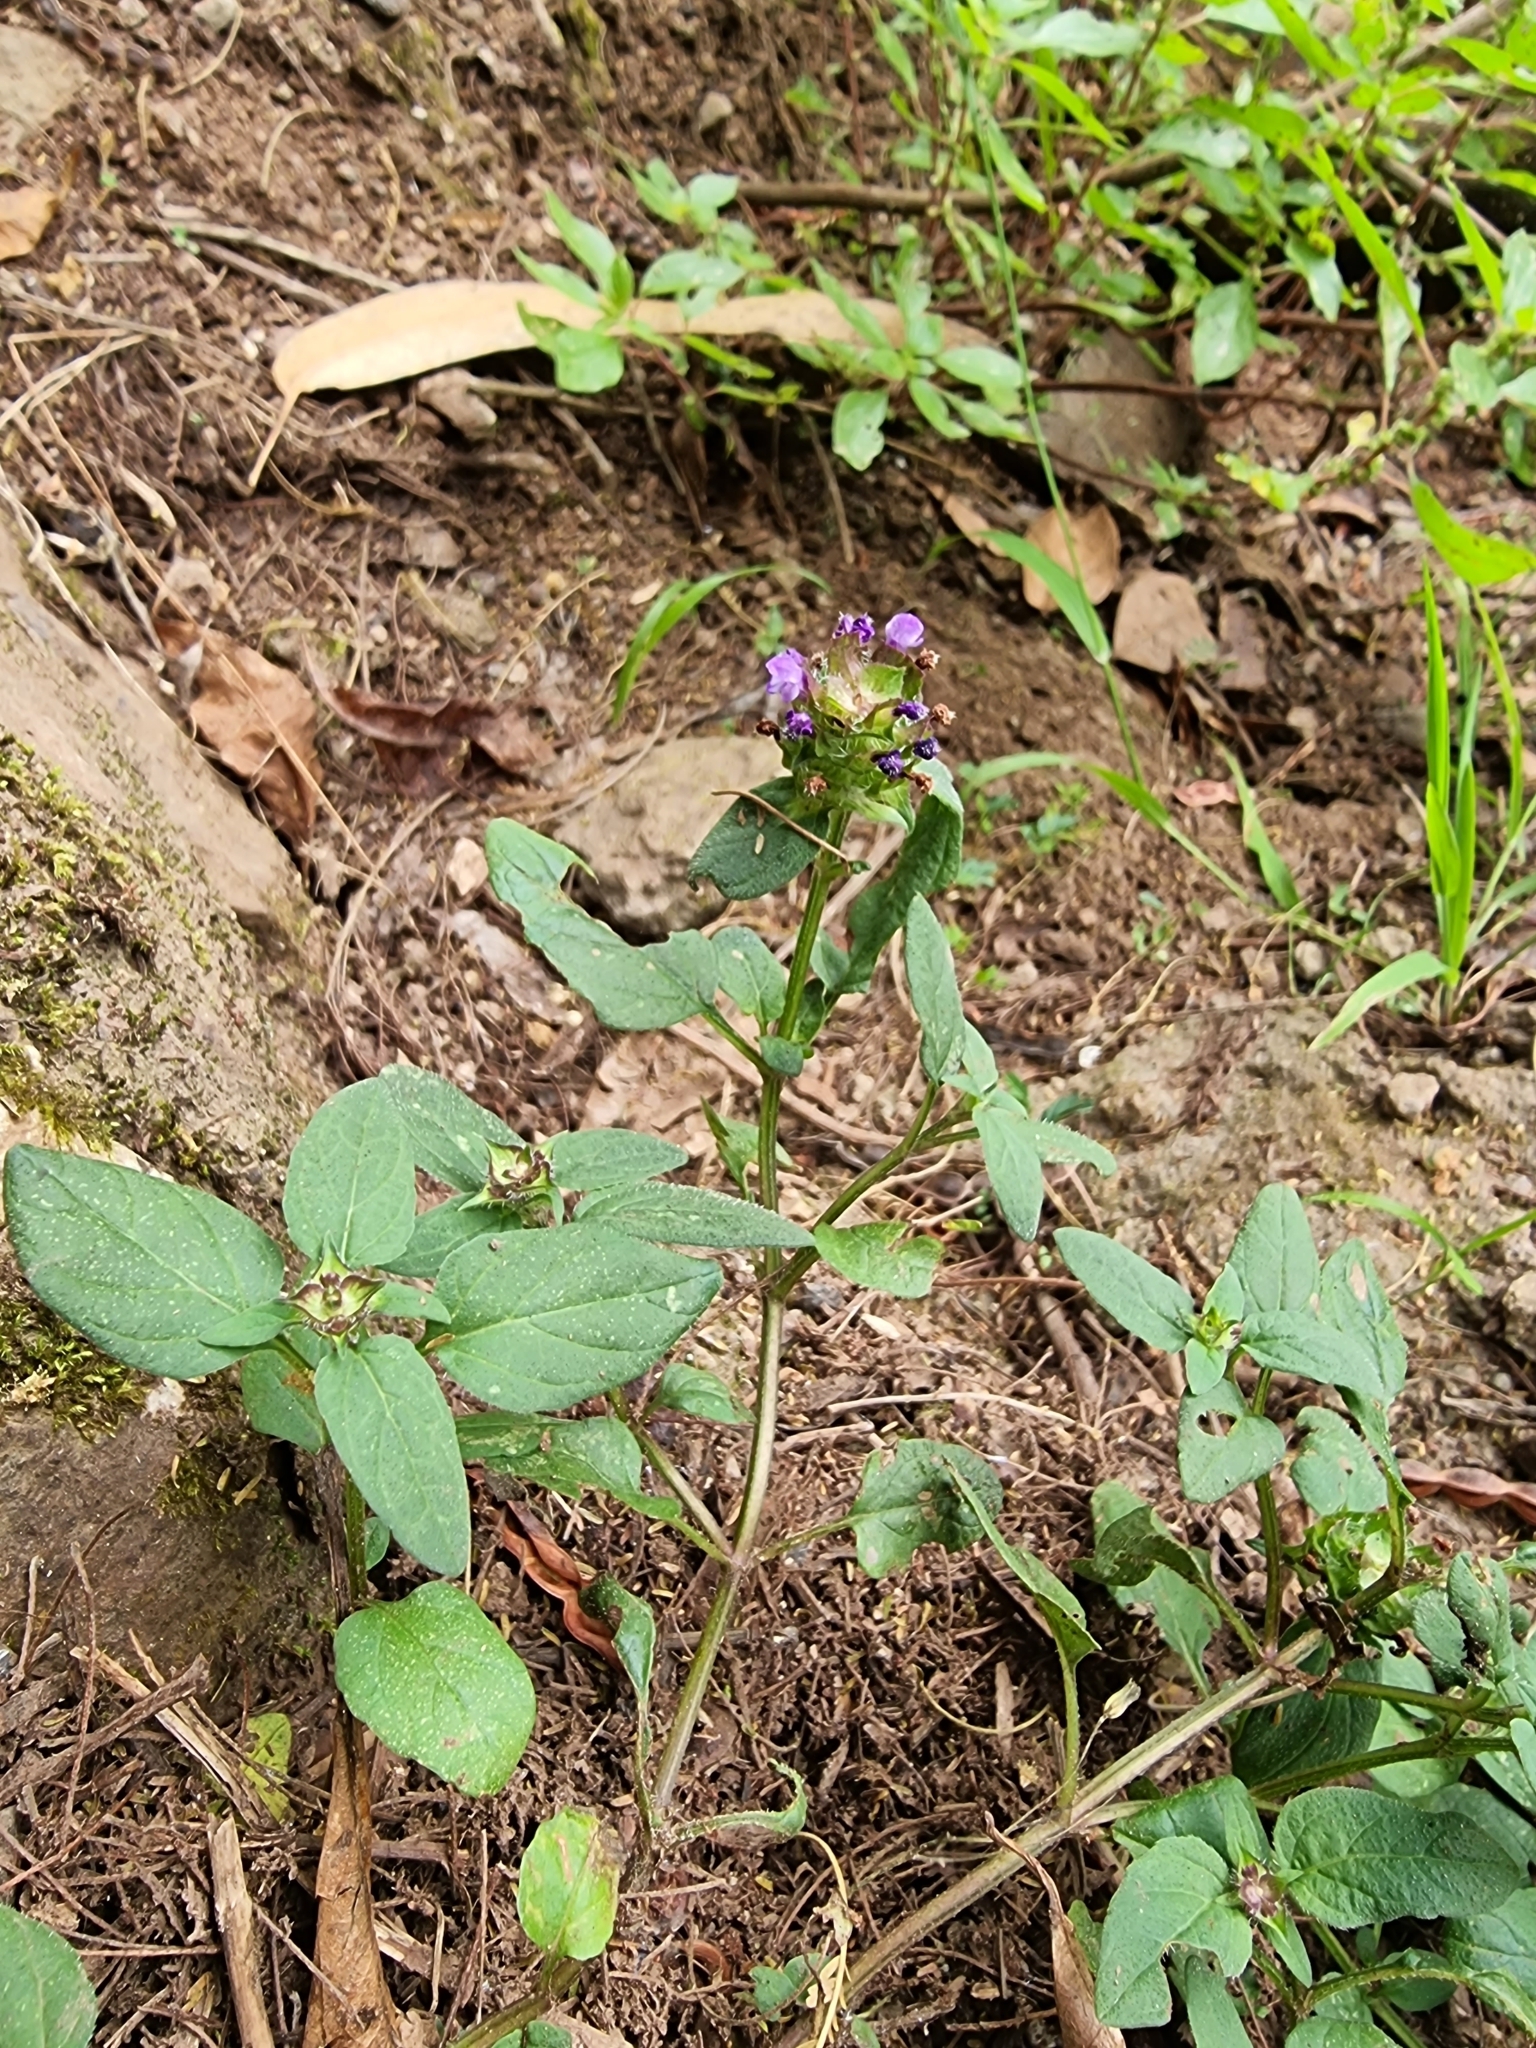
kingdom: Plantae
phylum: Tracheophyta
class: Magnoliopsida
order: Lamiales
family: Lamiaceae
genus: Prunella
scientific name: Prunella vulgaris
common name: Heal-all
